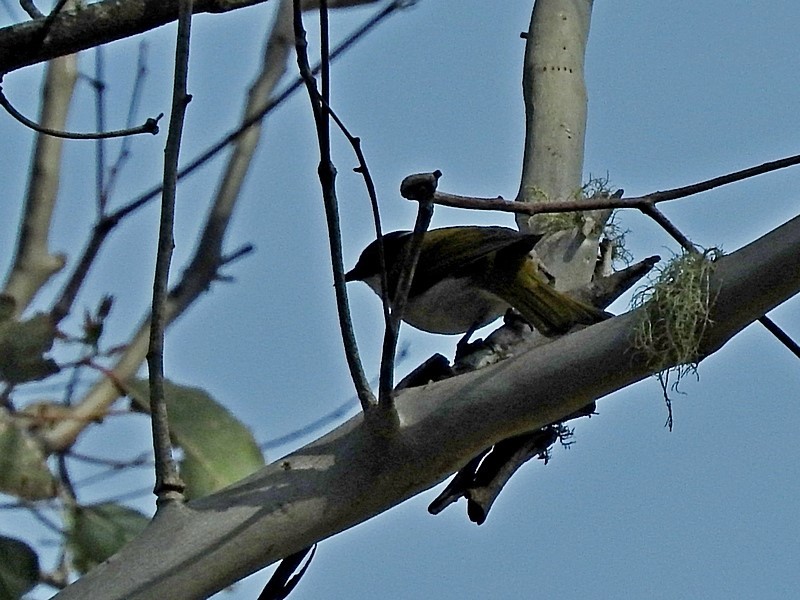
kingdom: Animalia
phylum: Chordata
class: Aves
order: Passeriformes
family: Meliphagidae
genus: Melithreptus
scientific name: Melithreptus lunatus
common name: White-naped honeyeater
